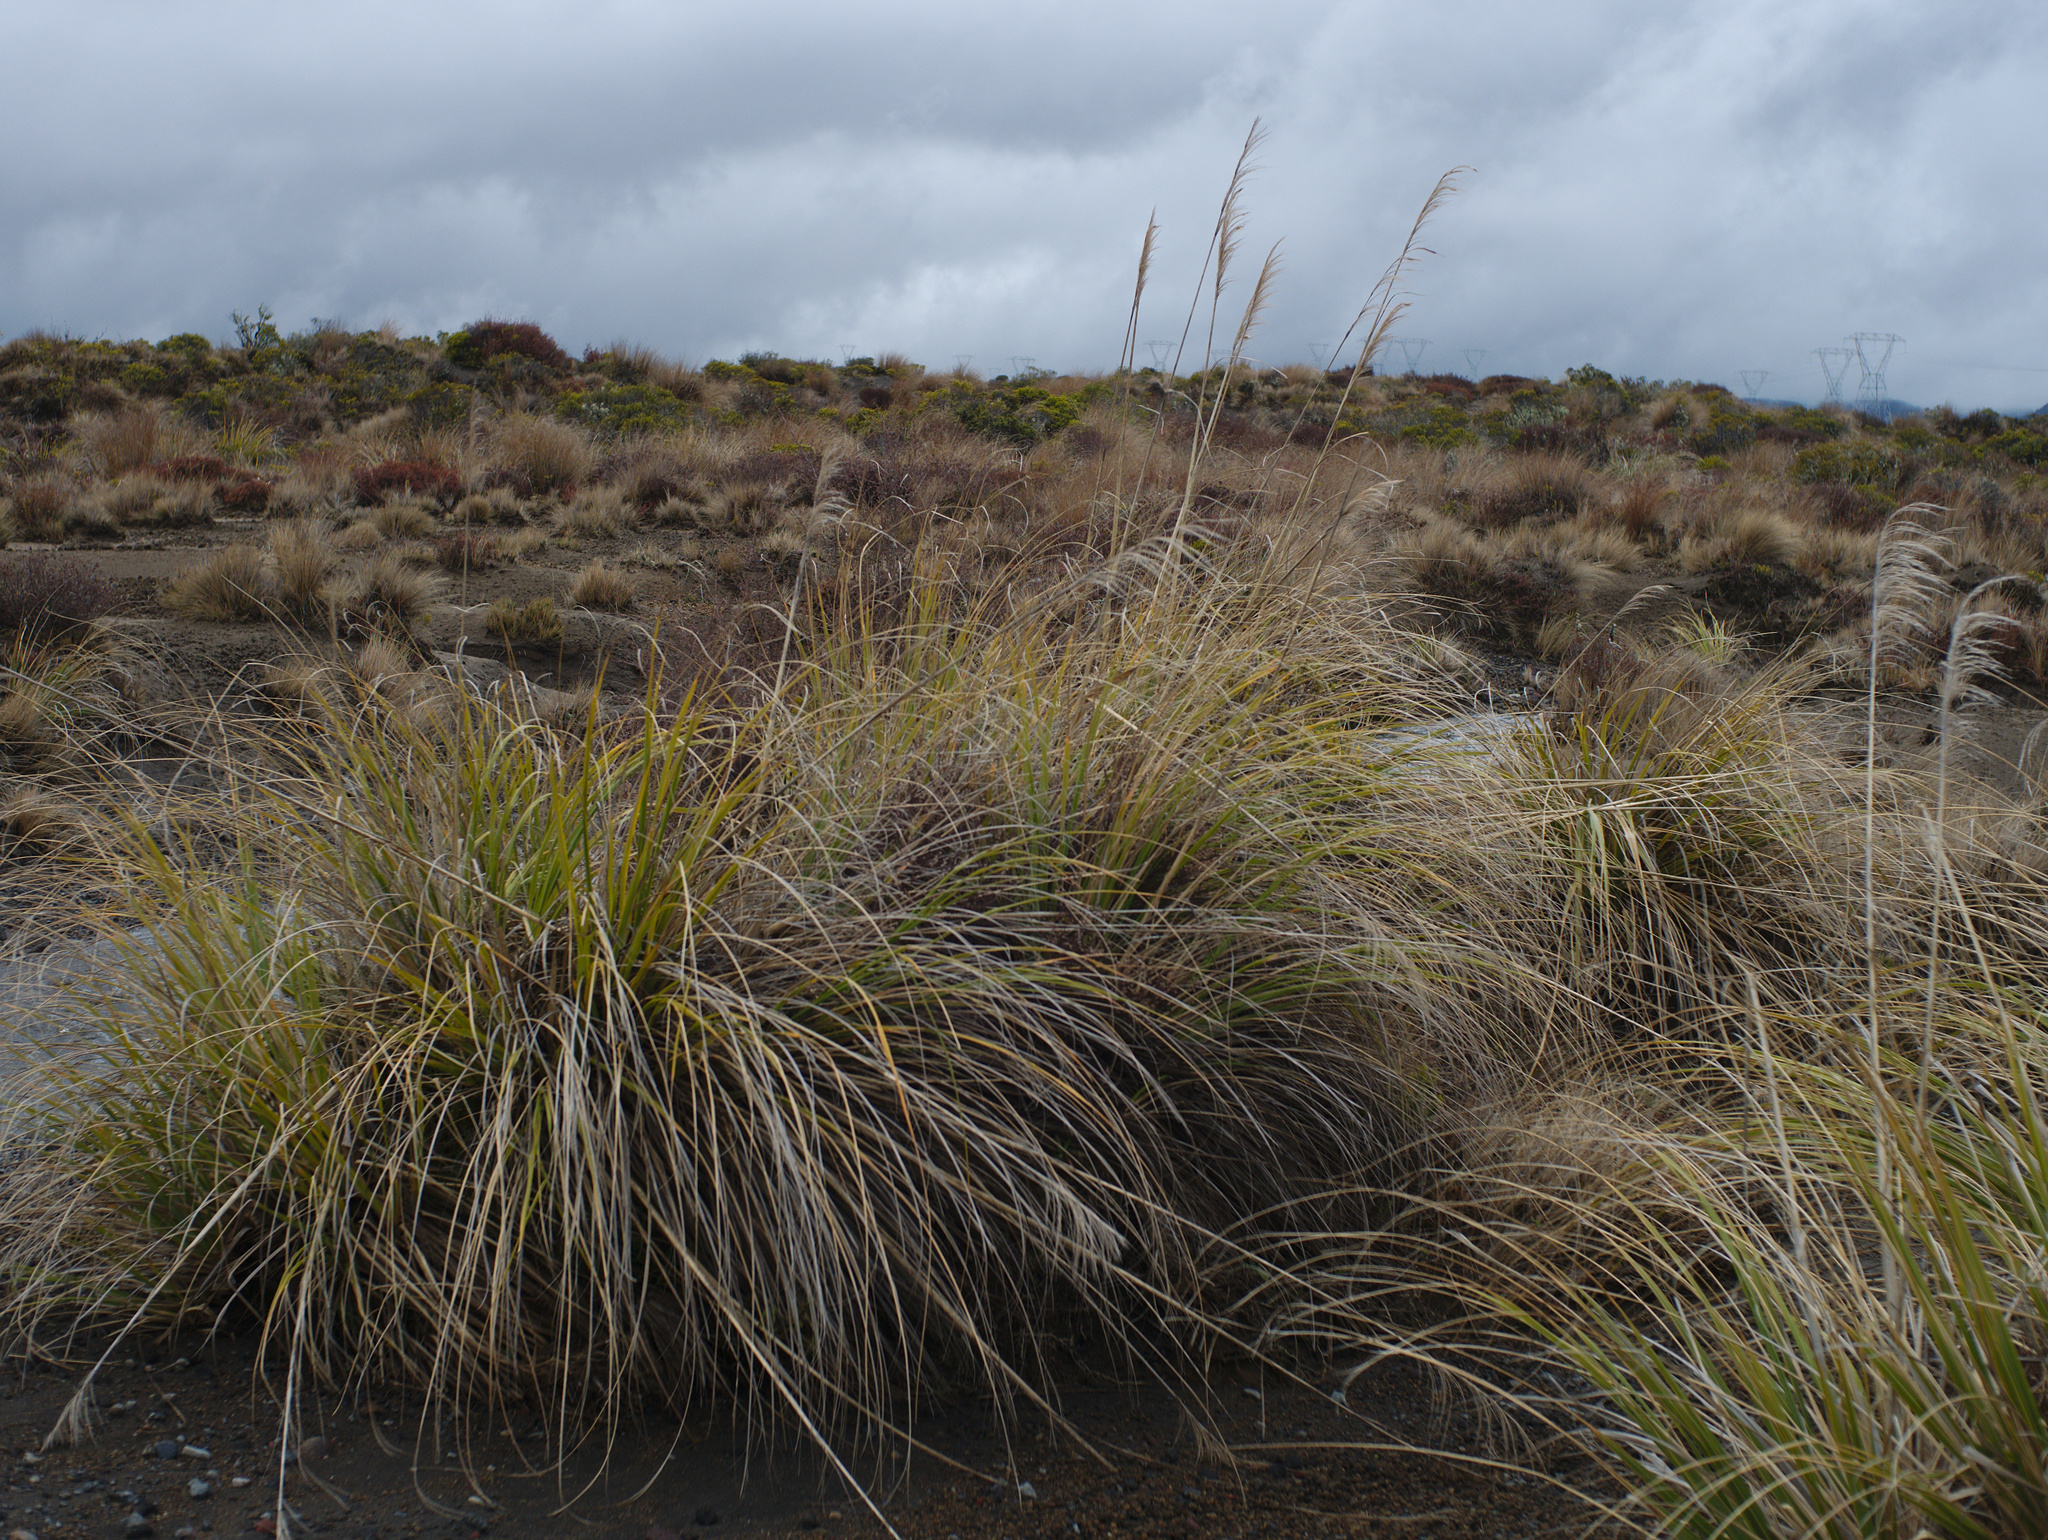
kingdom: Plantae
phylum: Tracheophyta
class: Liliopsida
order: Poales
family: Poaceae
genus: Austroderia
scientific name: Austroderia fulvida
